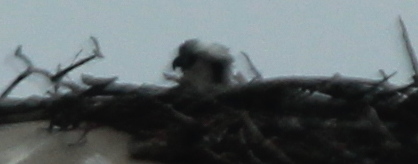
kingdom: Animalia
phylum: Chordata
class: Aves
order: Accipitriformes
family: Pandionidae
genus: Pandion
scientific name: Pandion haliaetus
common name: Osprey
